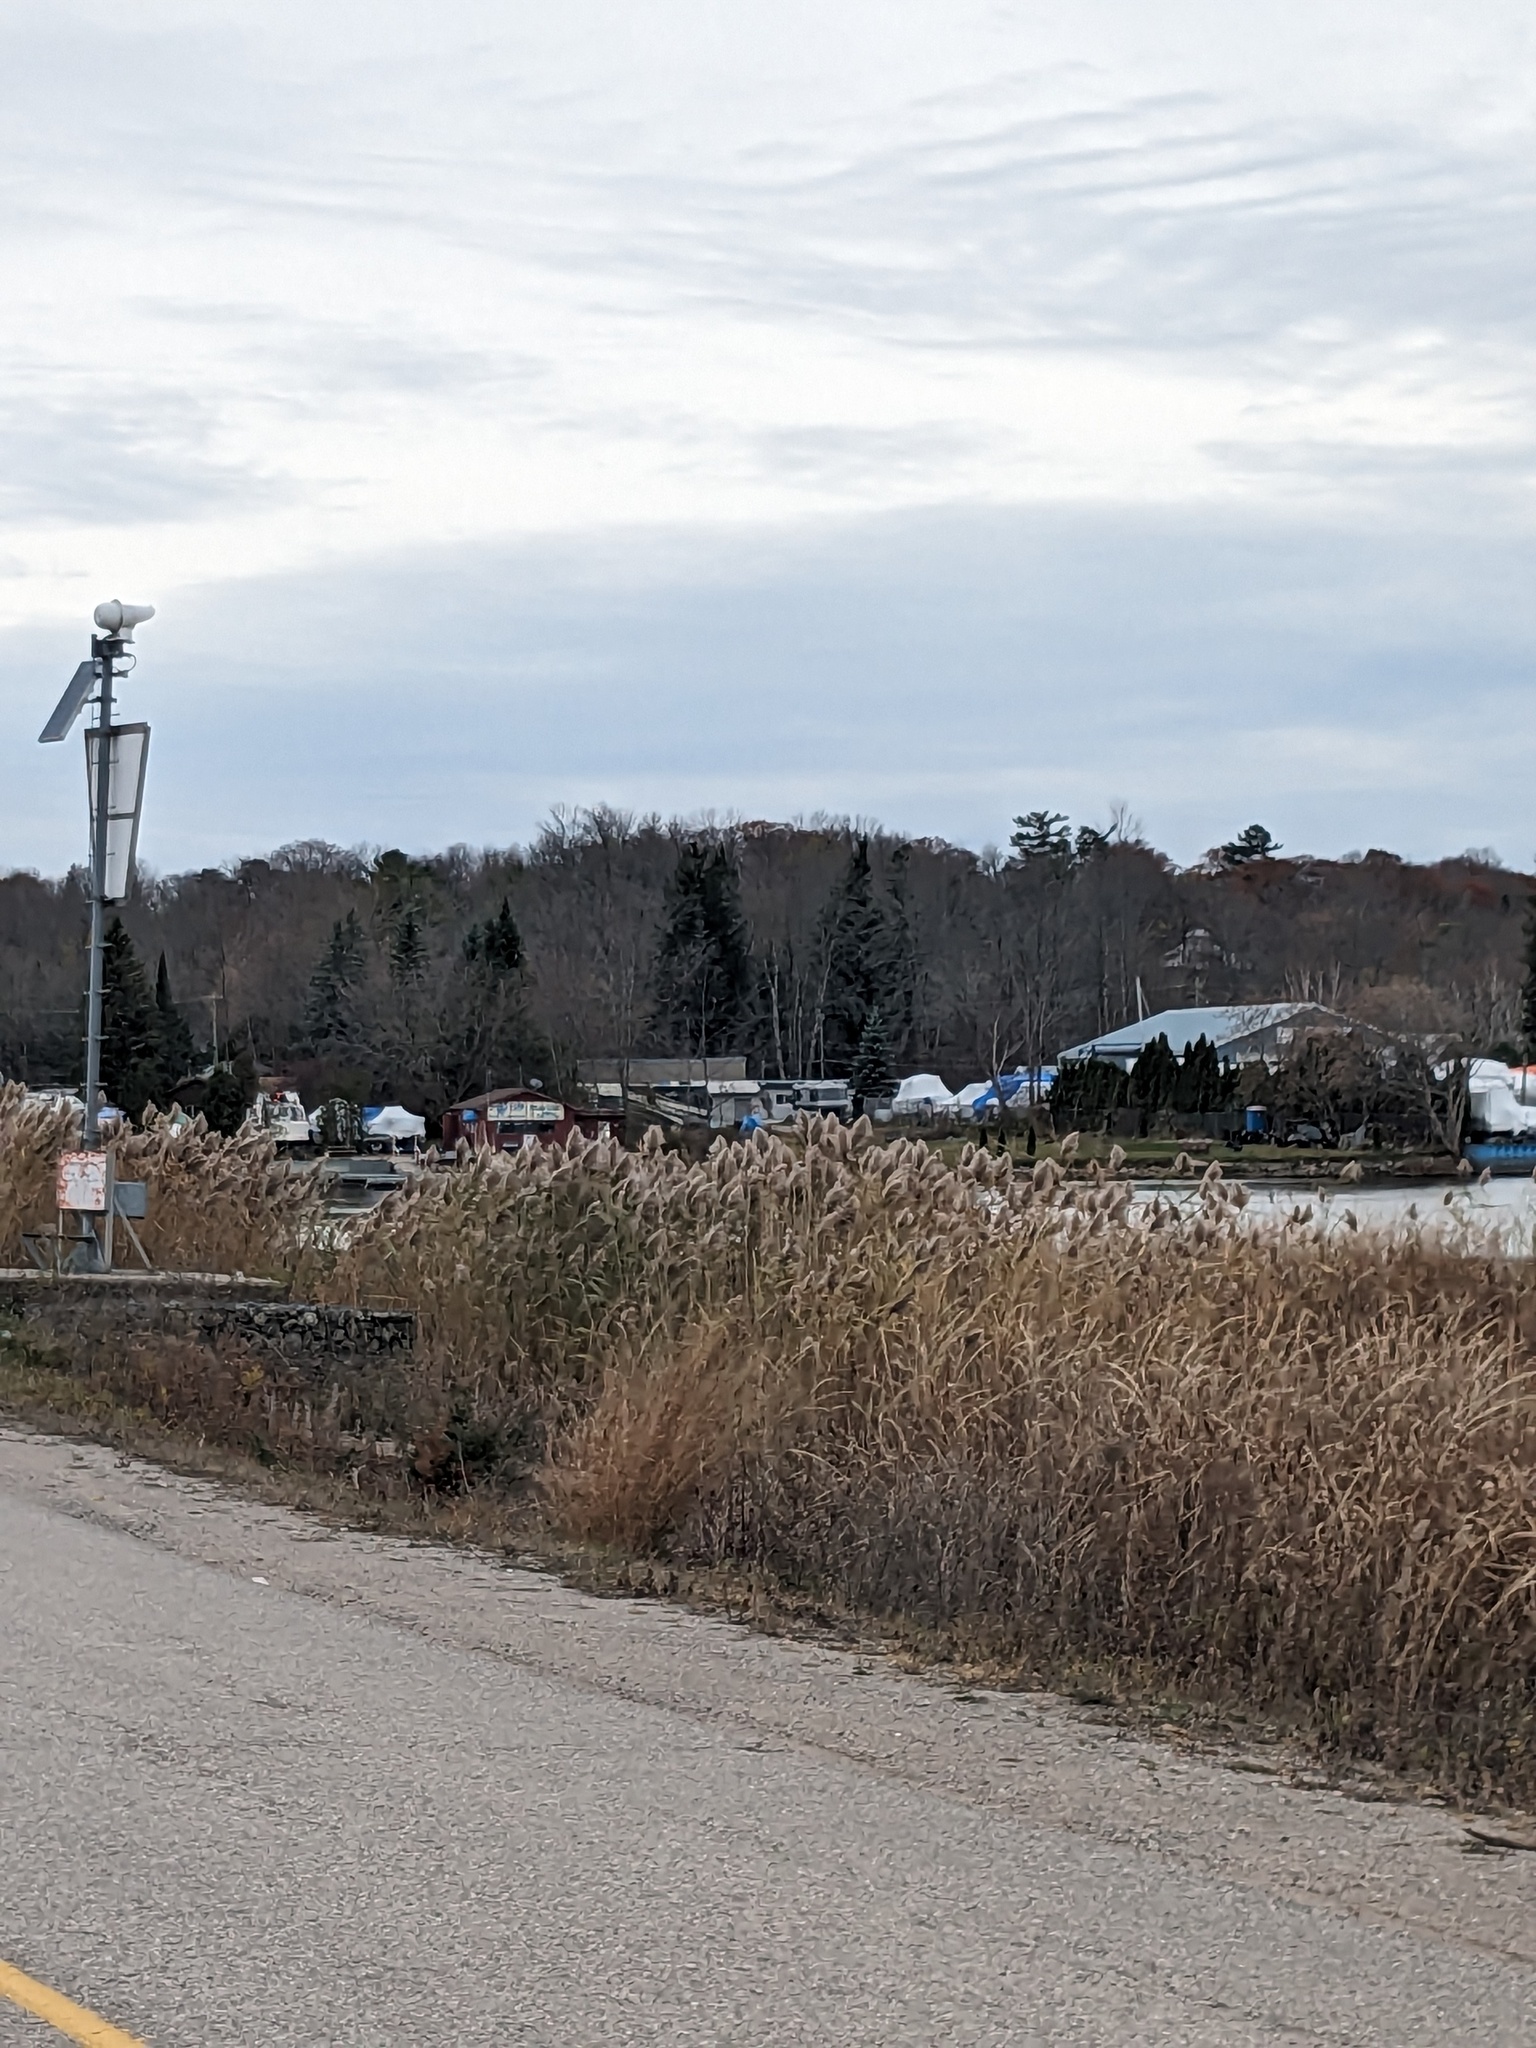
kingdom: Plantae
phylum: Tracheophyta
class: Liliopsida
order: Poales
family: Poaceae
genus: Phragmites
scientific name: Phragmites australis
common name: Common reed
